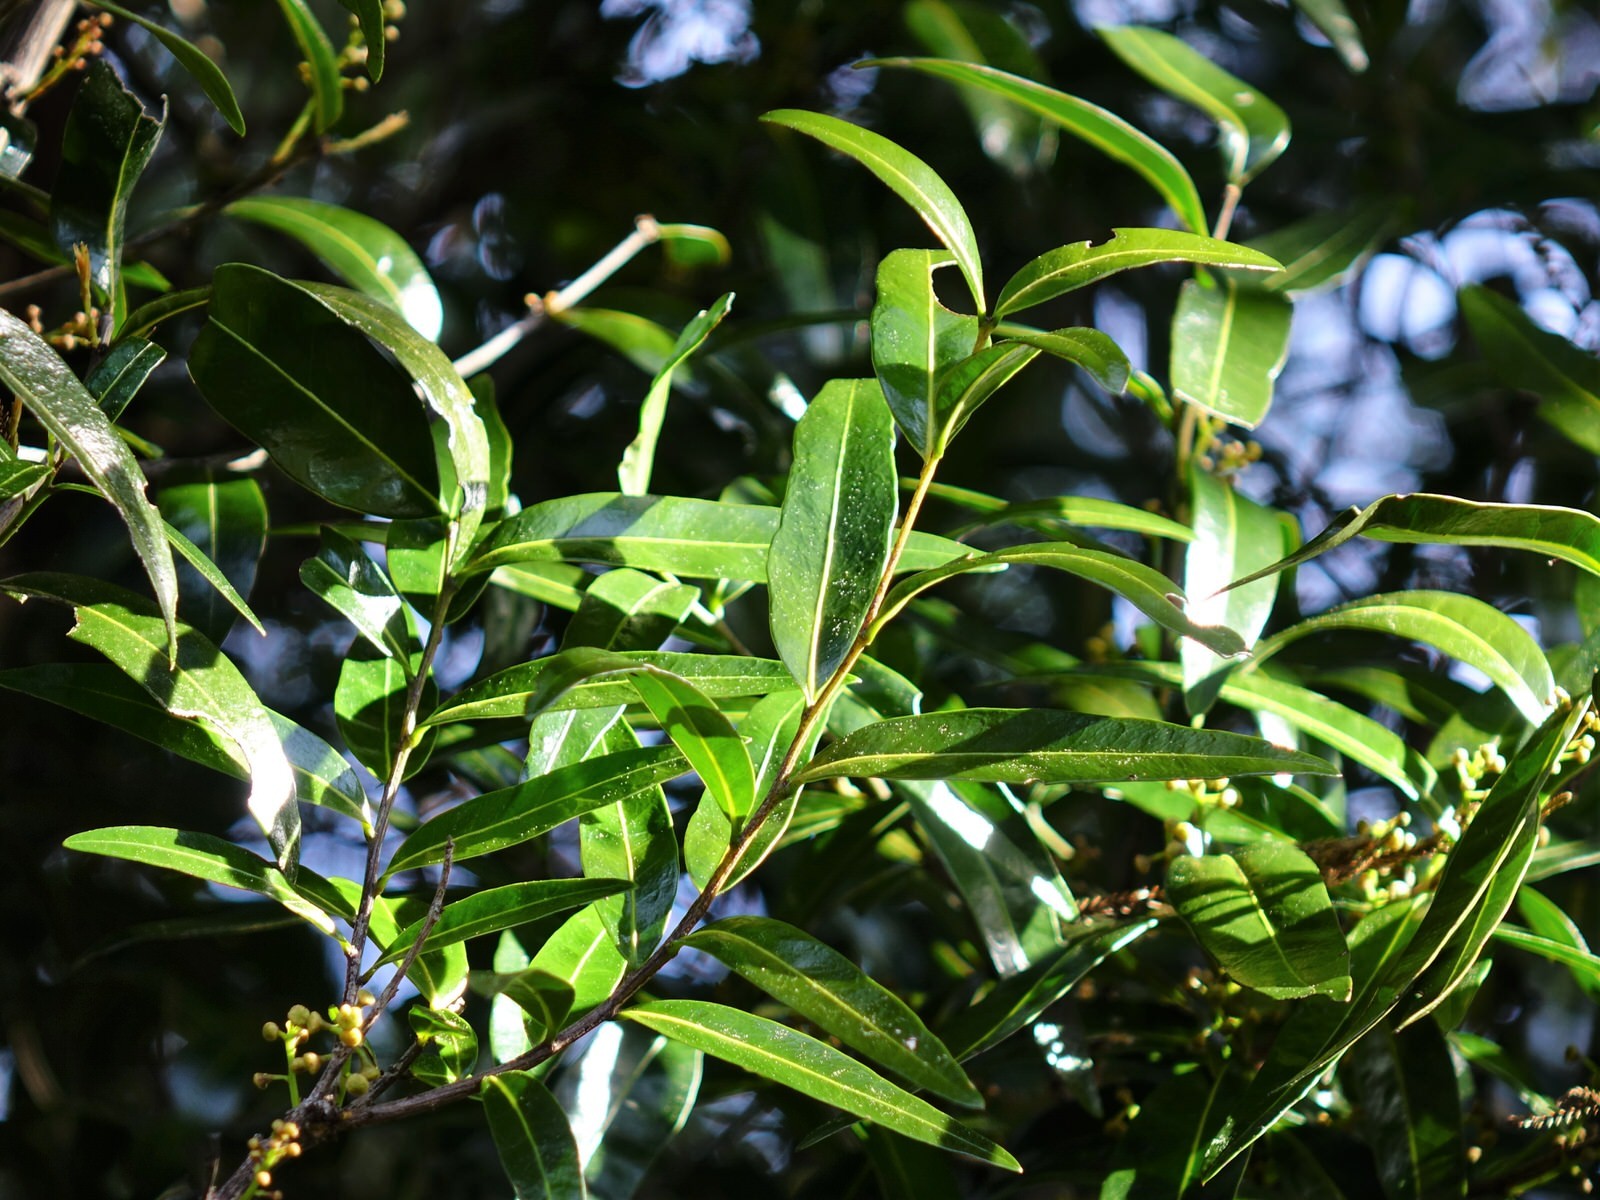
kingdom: Plantae
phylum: Tracheophyta
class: Magnoliopsida
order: Lamiales
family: Oleaceae
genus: Nestegis
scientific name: Nestegis lanceolata
